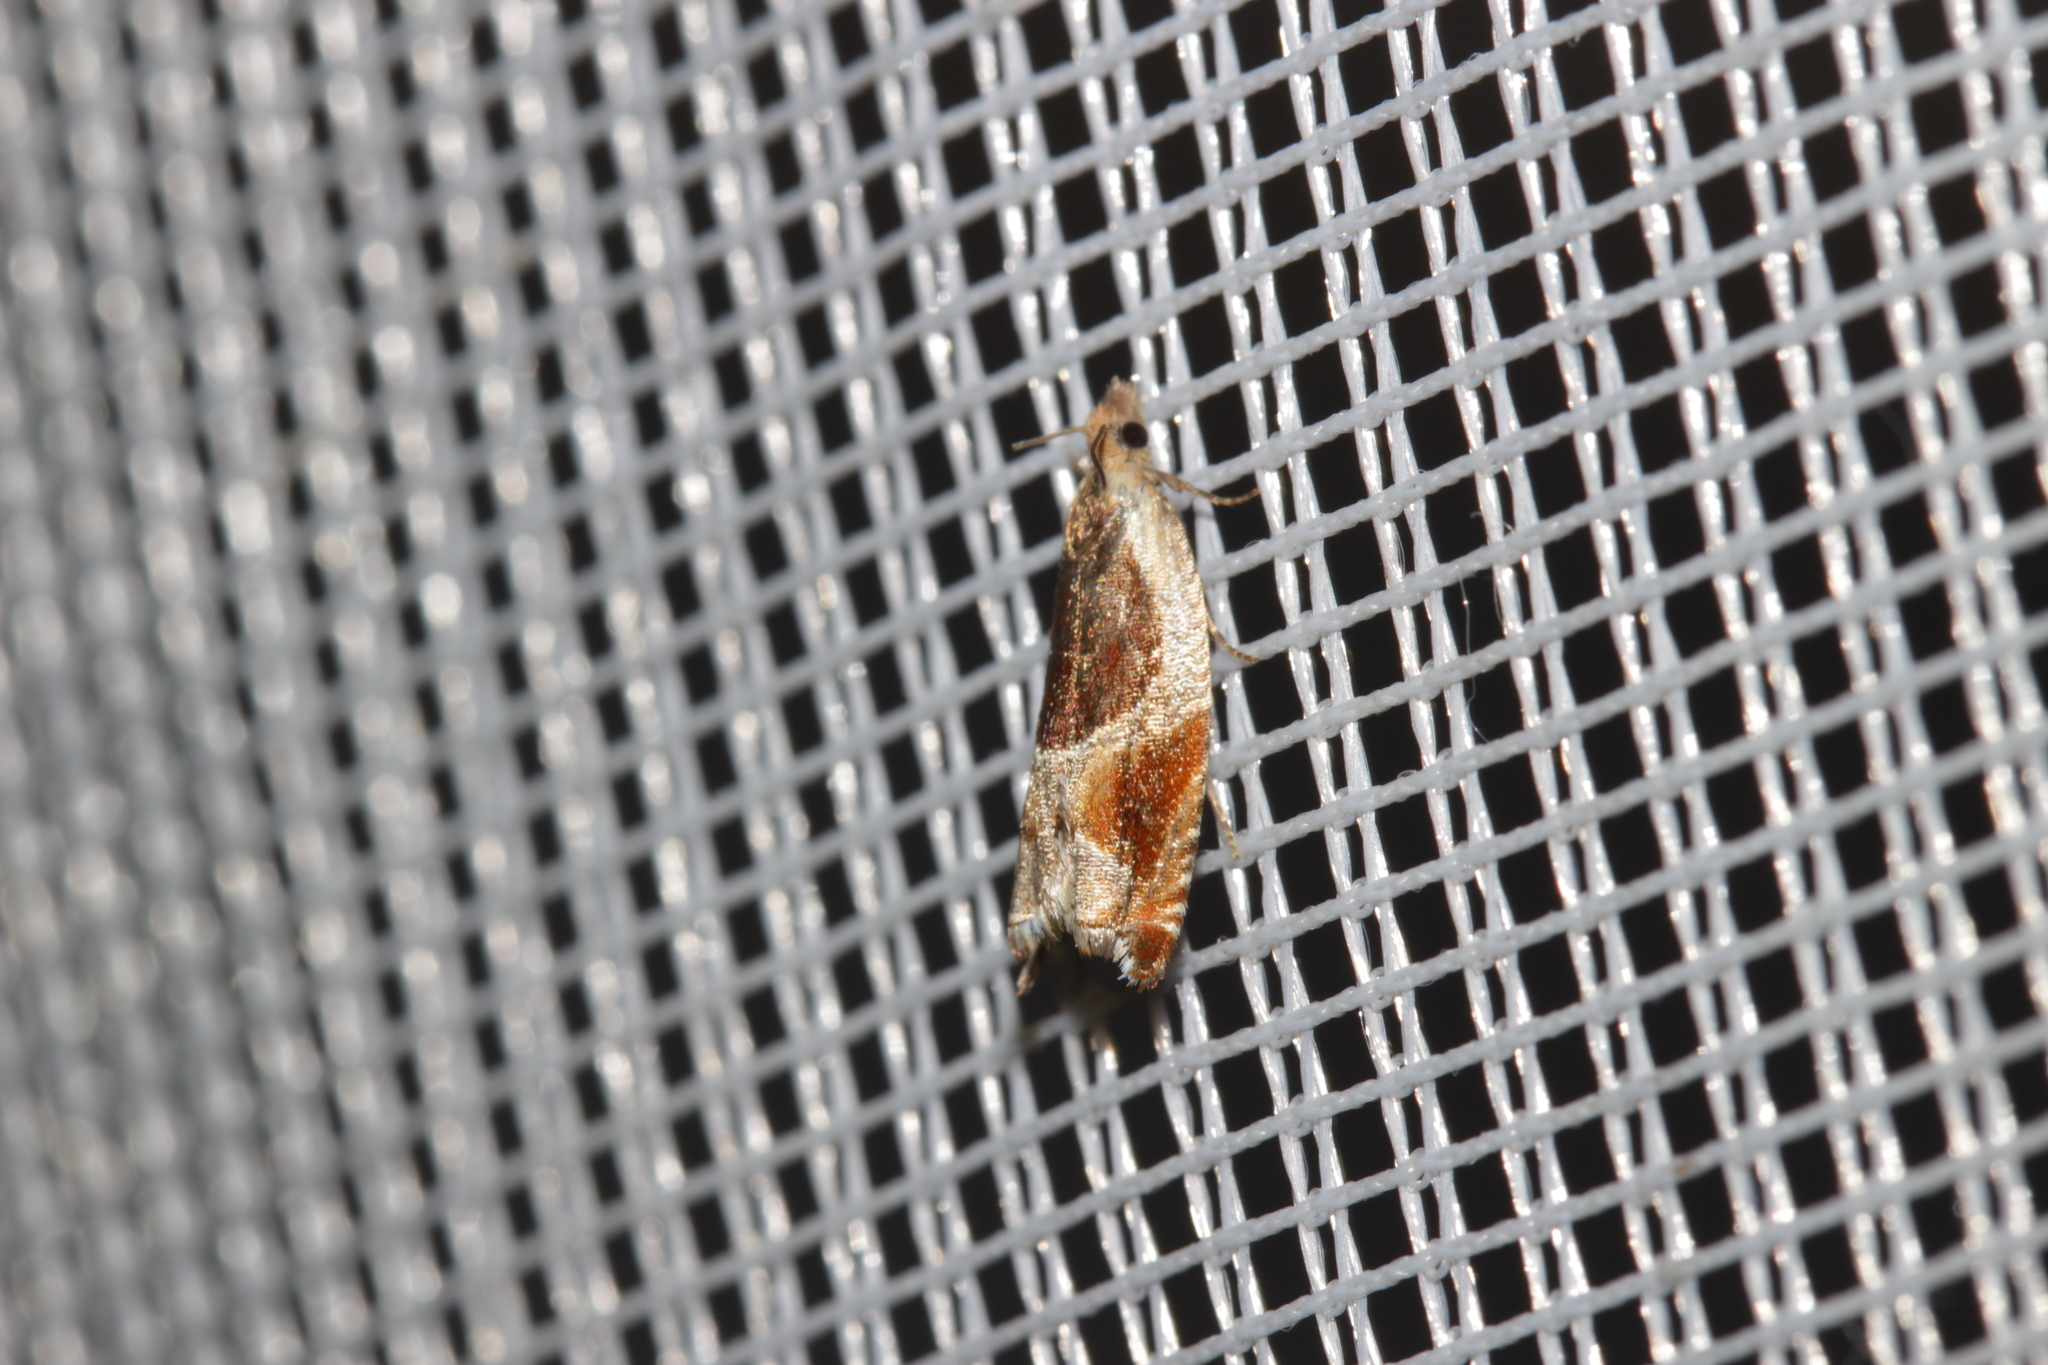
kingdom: Animalia
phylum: Arthropoda
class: Insecta
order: Lepidoptera
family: Tortricidae
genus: Ancylis
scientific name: Ancylis unculana
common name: Buckthorn roller
